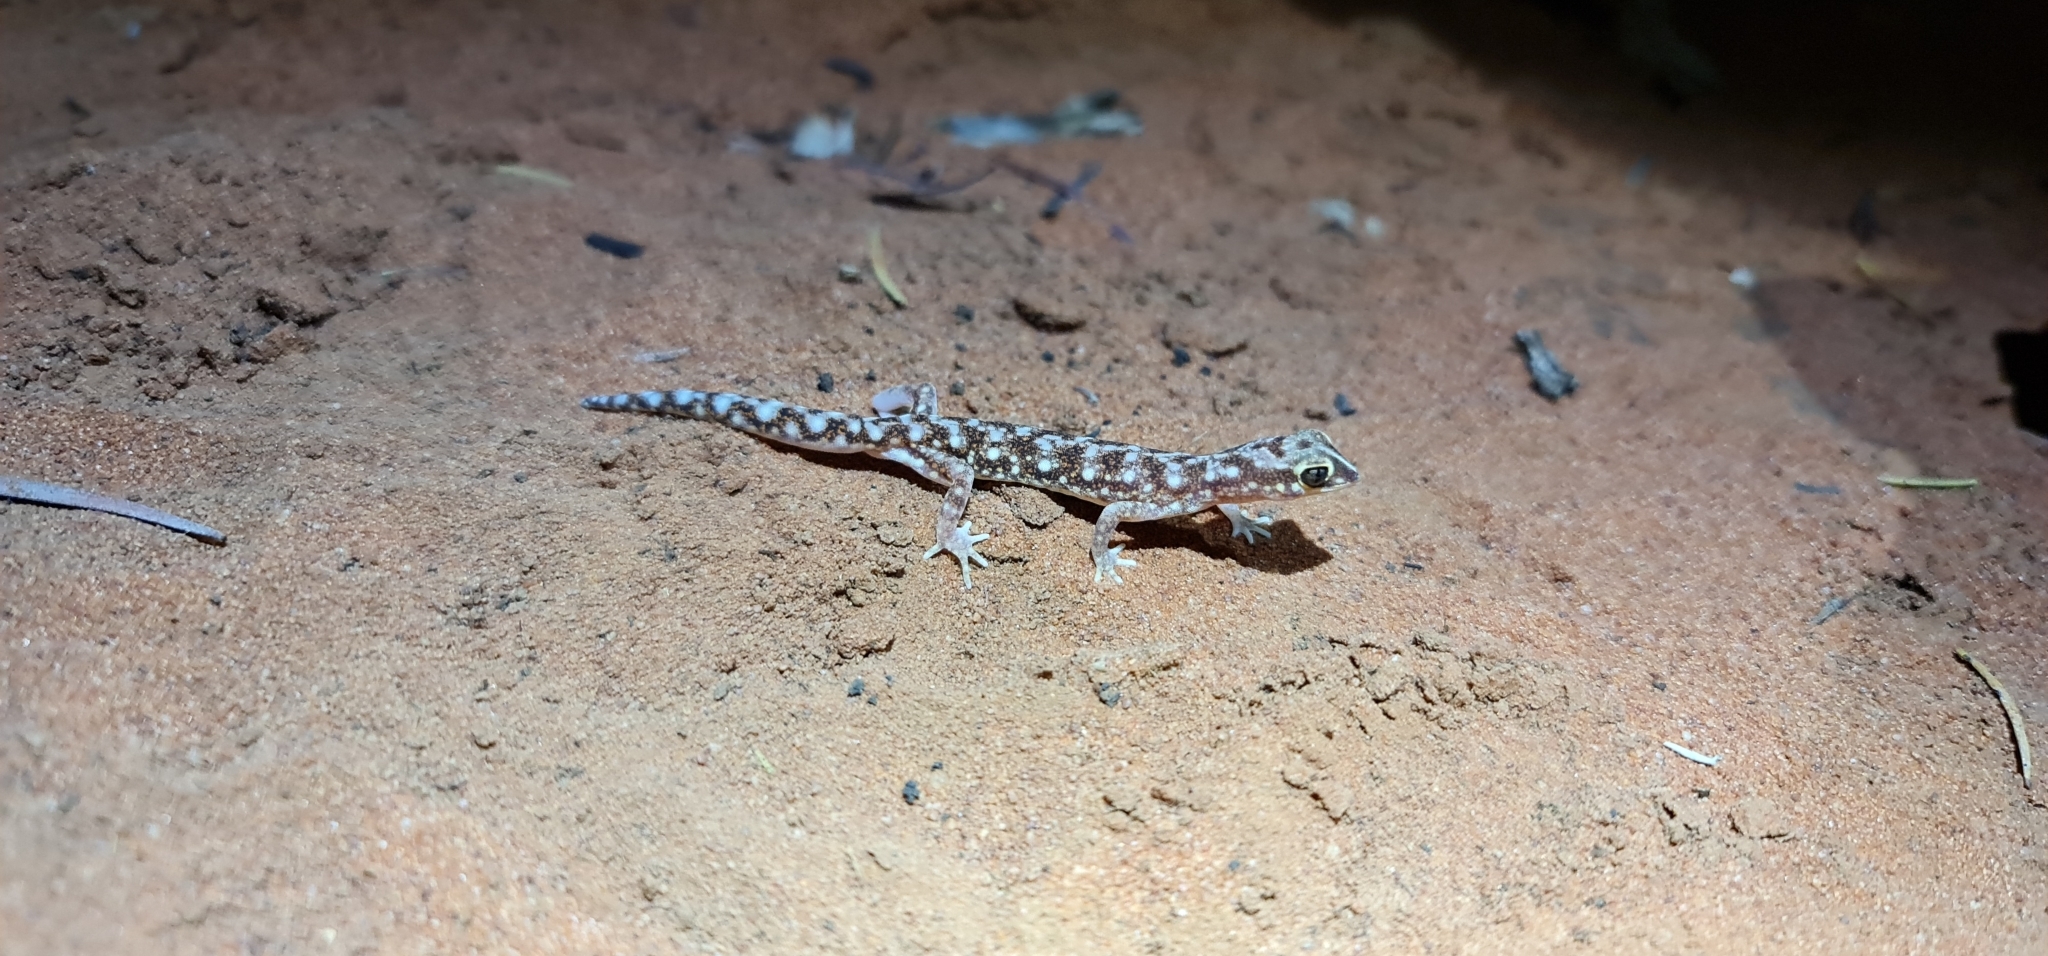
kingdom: Animalia
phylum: Chordata
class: Squamata
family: Diplodactylidae
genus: Rhynchoedura
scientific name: Rhynchoedura eyrensis
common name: Eyre basin beaked gecko
